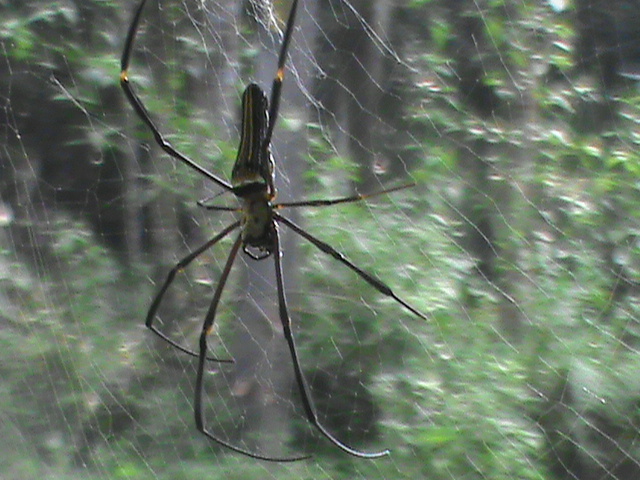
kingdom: Animalia
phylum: Arthropoda
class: Arachnida
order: Araneae
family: Araneidae
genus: Nephila
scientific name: Nephila pilipes
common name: Giant golden orb weaver
